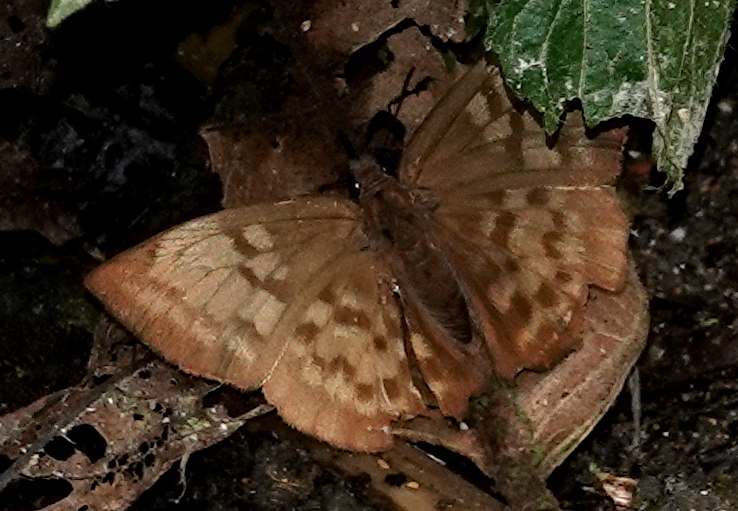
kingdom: Animalia
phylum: Arthropoda
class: Insecta
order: Lepidoptera
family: Hesperiidae
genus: Achlyodes
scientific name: Achlyodes pallida
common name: Pale sicklewing
